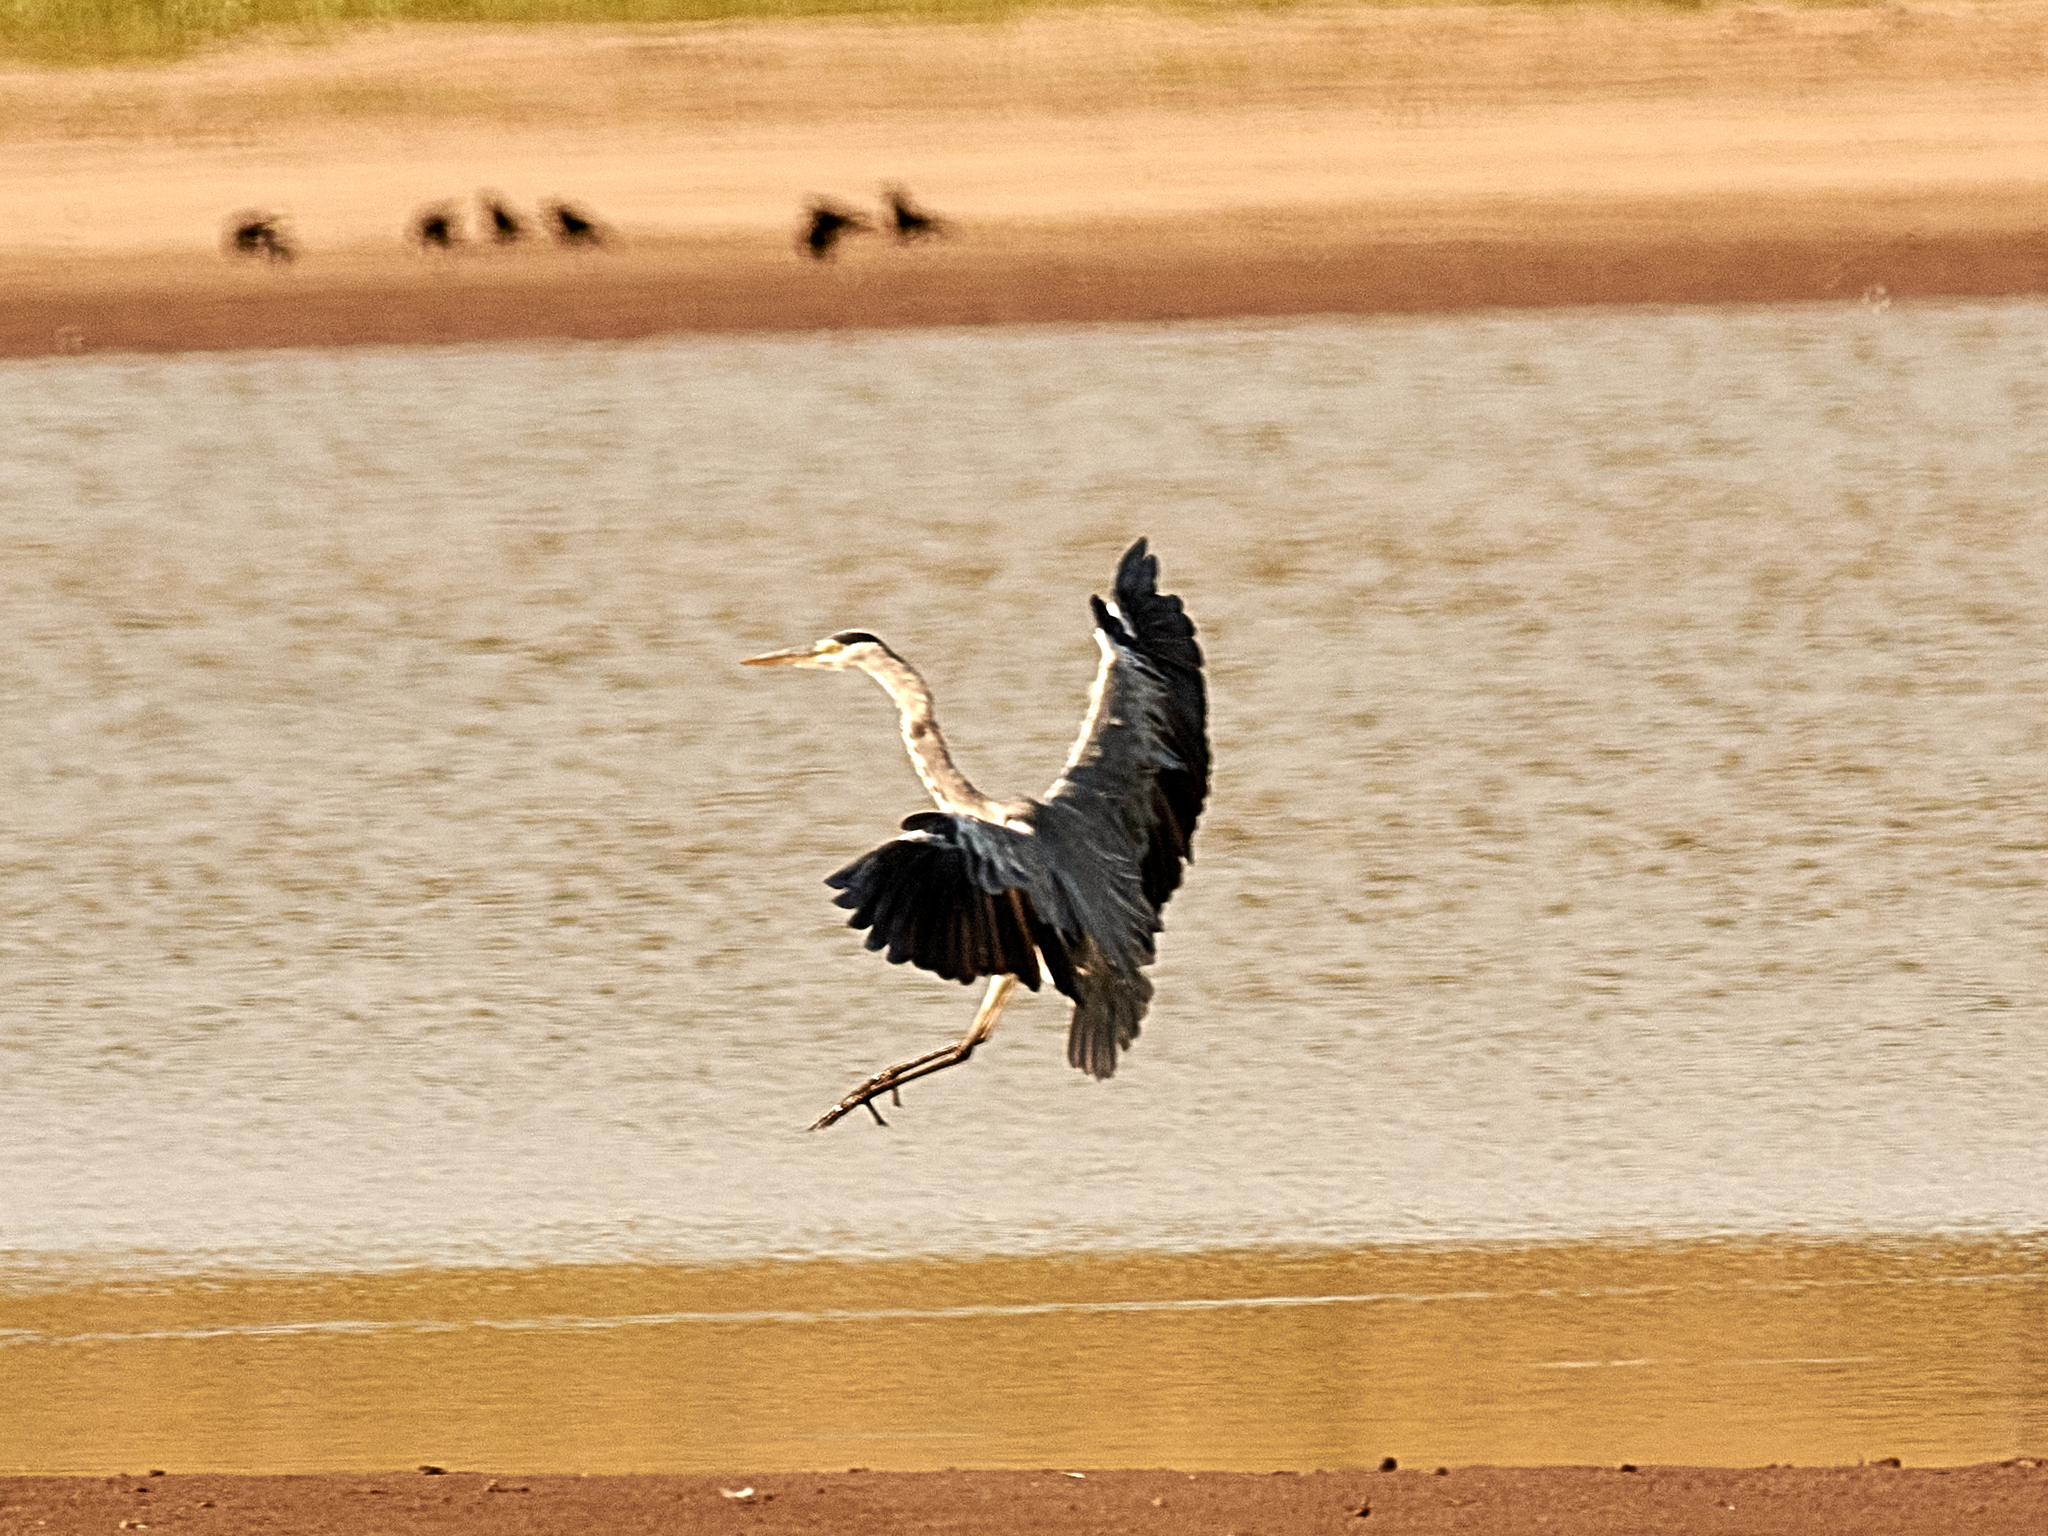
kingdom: Animalia
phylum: Chordata
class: Aves
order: Pelecaniformes
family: Ardeidae
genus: Ardea
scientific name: Ardea cinerea
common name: Grey heron
